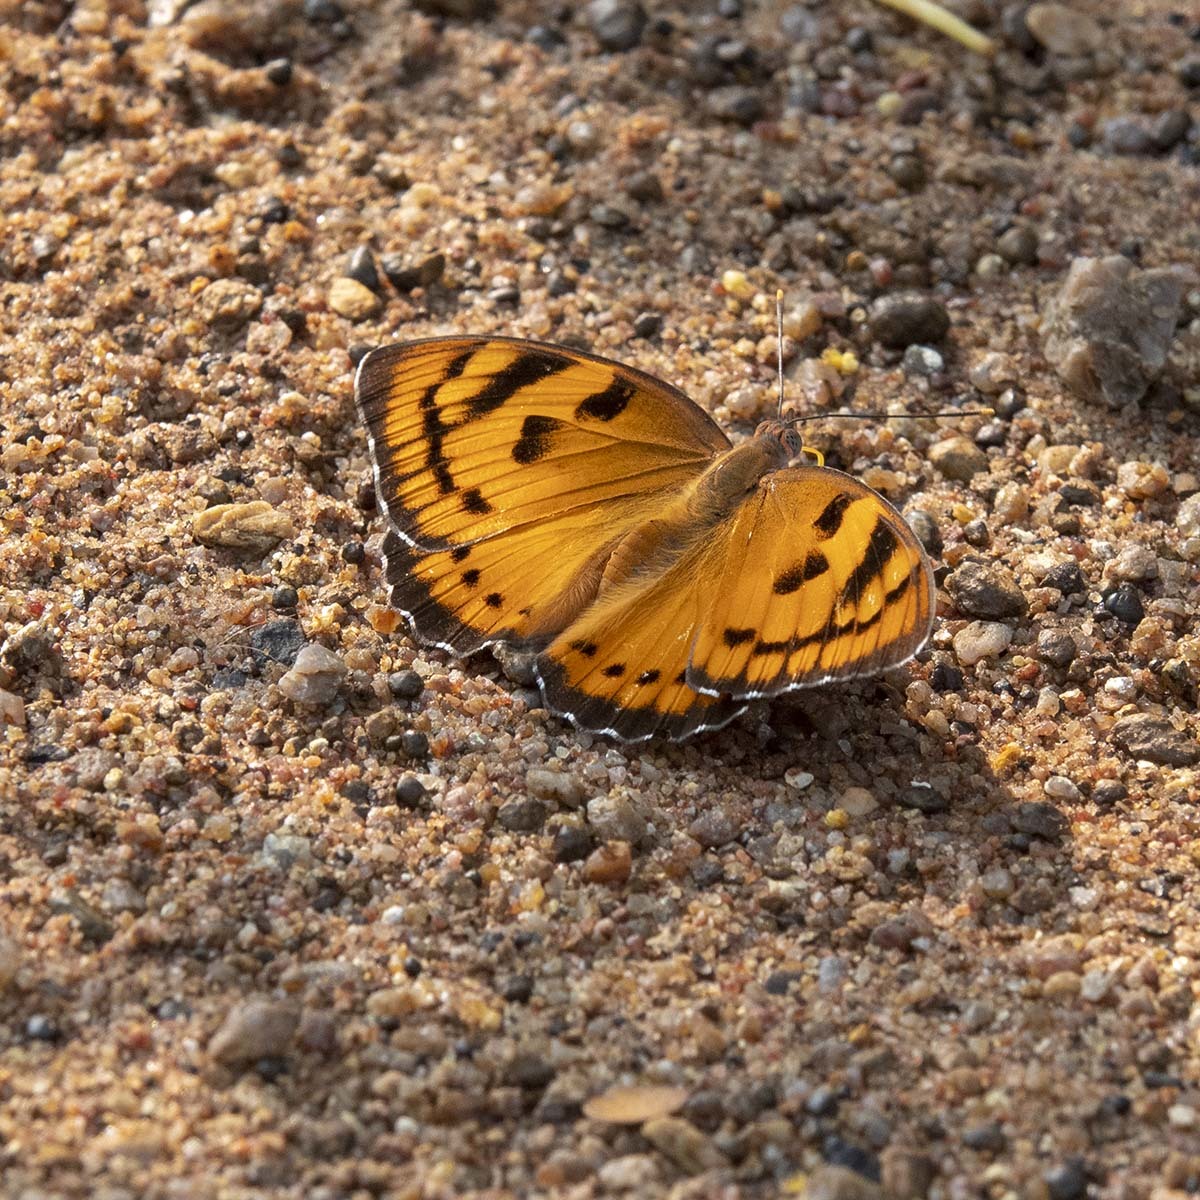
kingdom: Animalia
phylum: Arthropoda
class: Insecta
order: Lepidoptera
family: Nymphalidae
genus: Euthalia
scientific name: Euthalia nais
